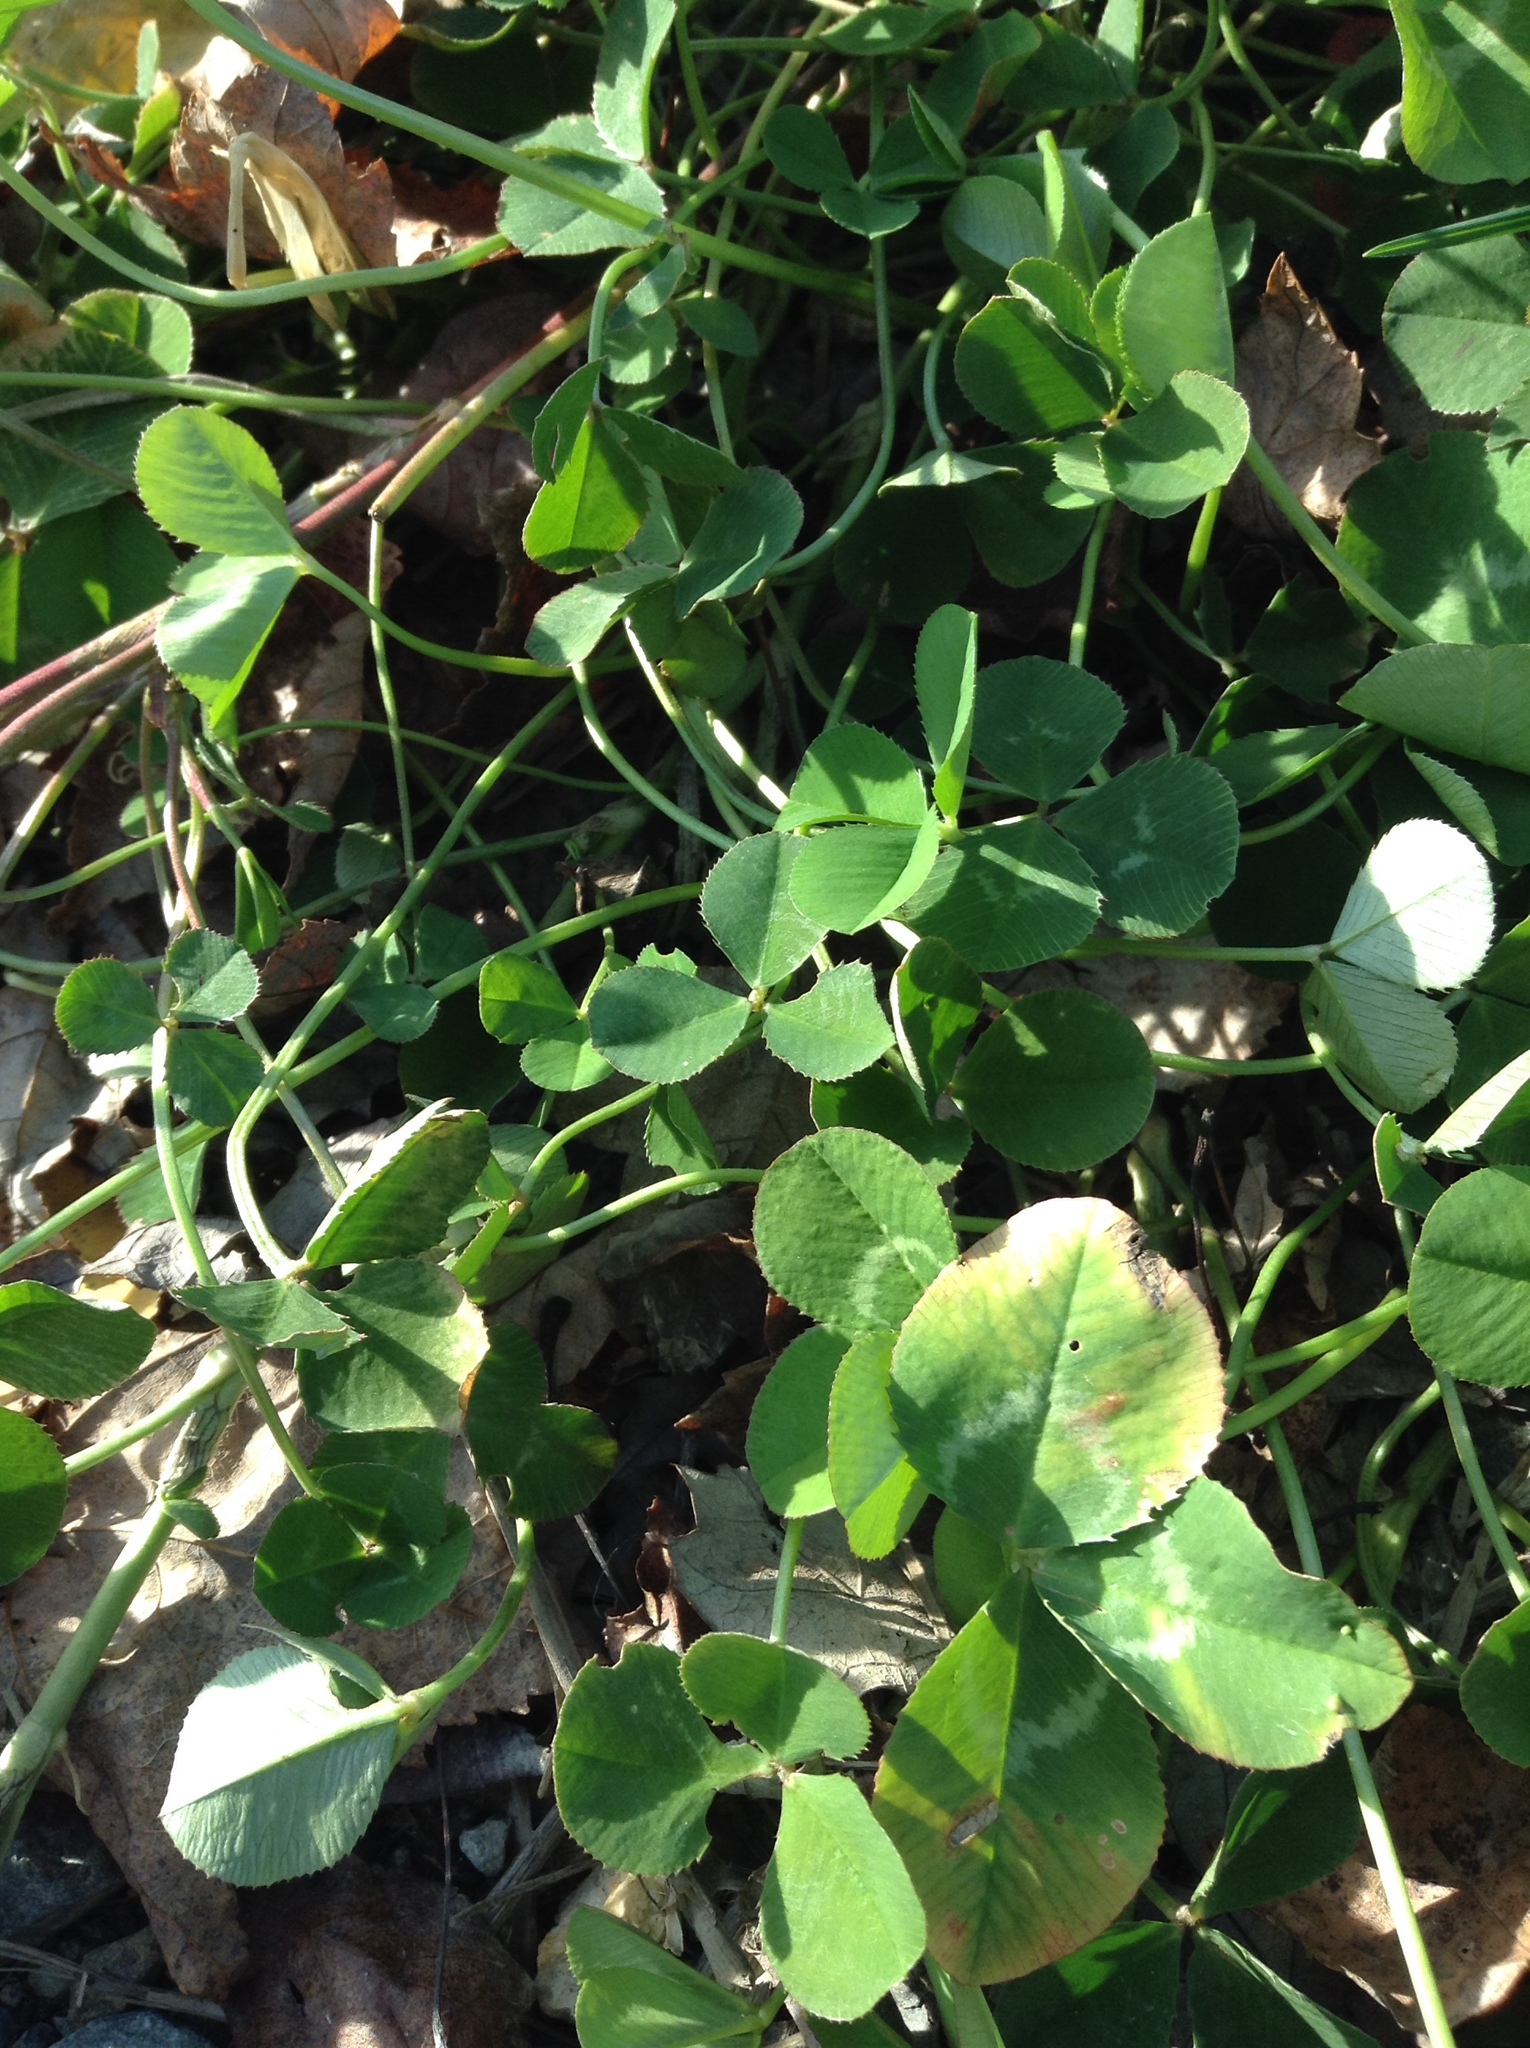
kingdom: Plantae
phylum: Tracheophyta
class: Magnoliopsida
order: Fabales
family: Fabaceae
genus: Trifolium
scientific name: Trifolium repens
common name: White clover
